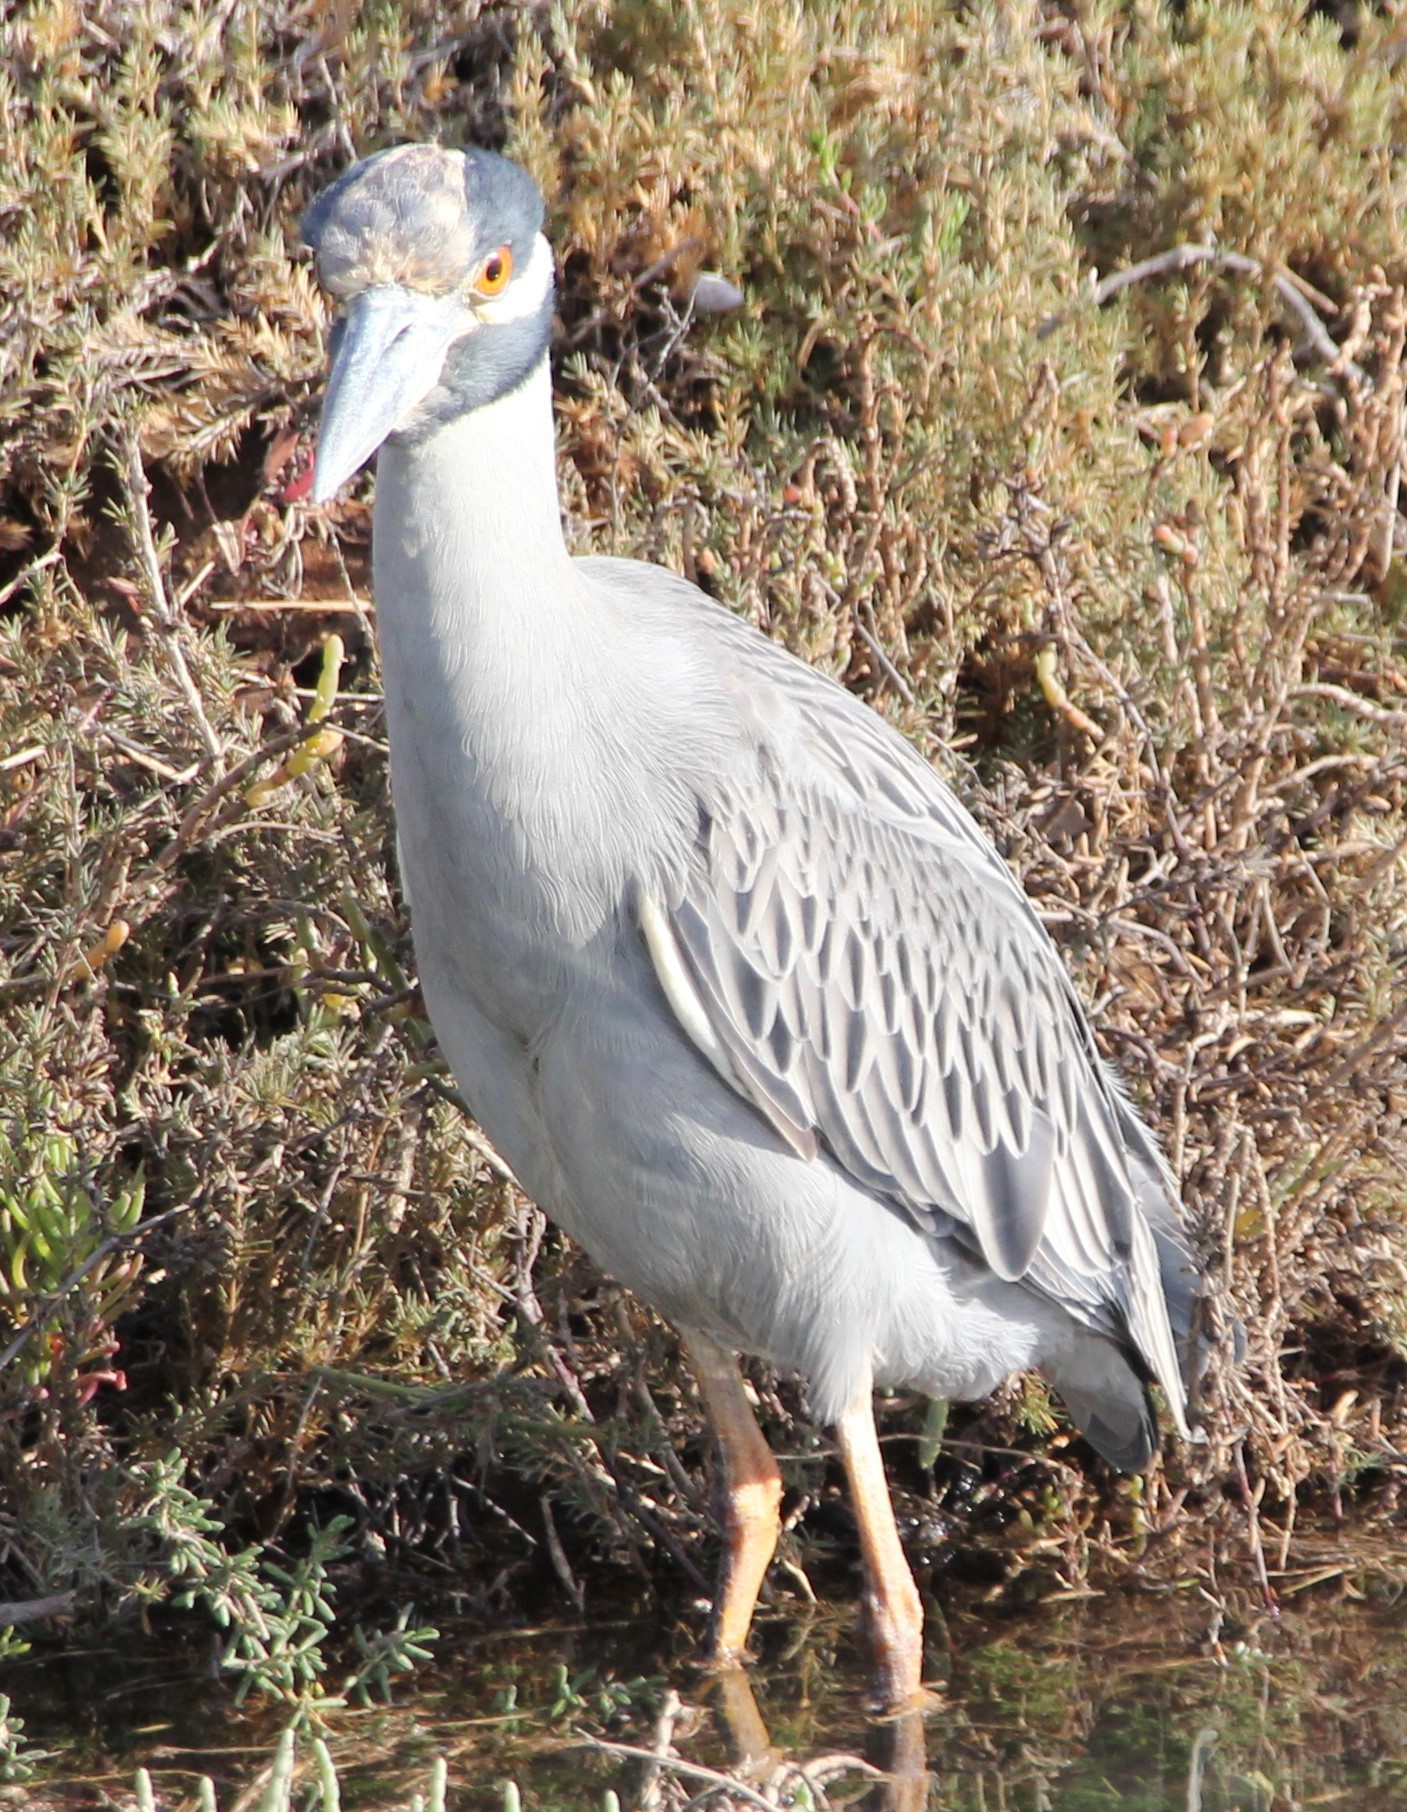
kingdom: Animalia
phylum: Chordata
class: Aves
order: Pelecaniformes
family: Ardeidae
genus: Nyctanassa
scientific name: Nyctanassa violacea
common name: Yellow-crowned night heron
